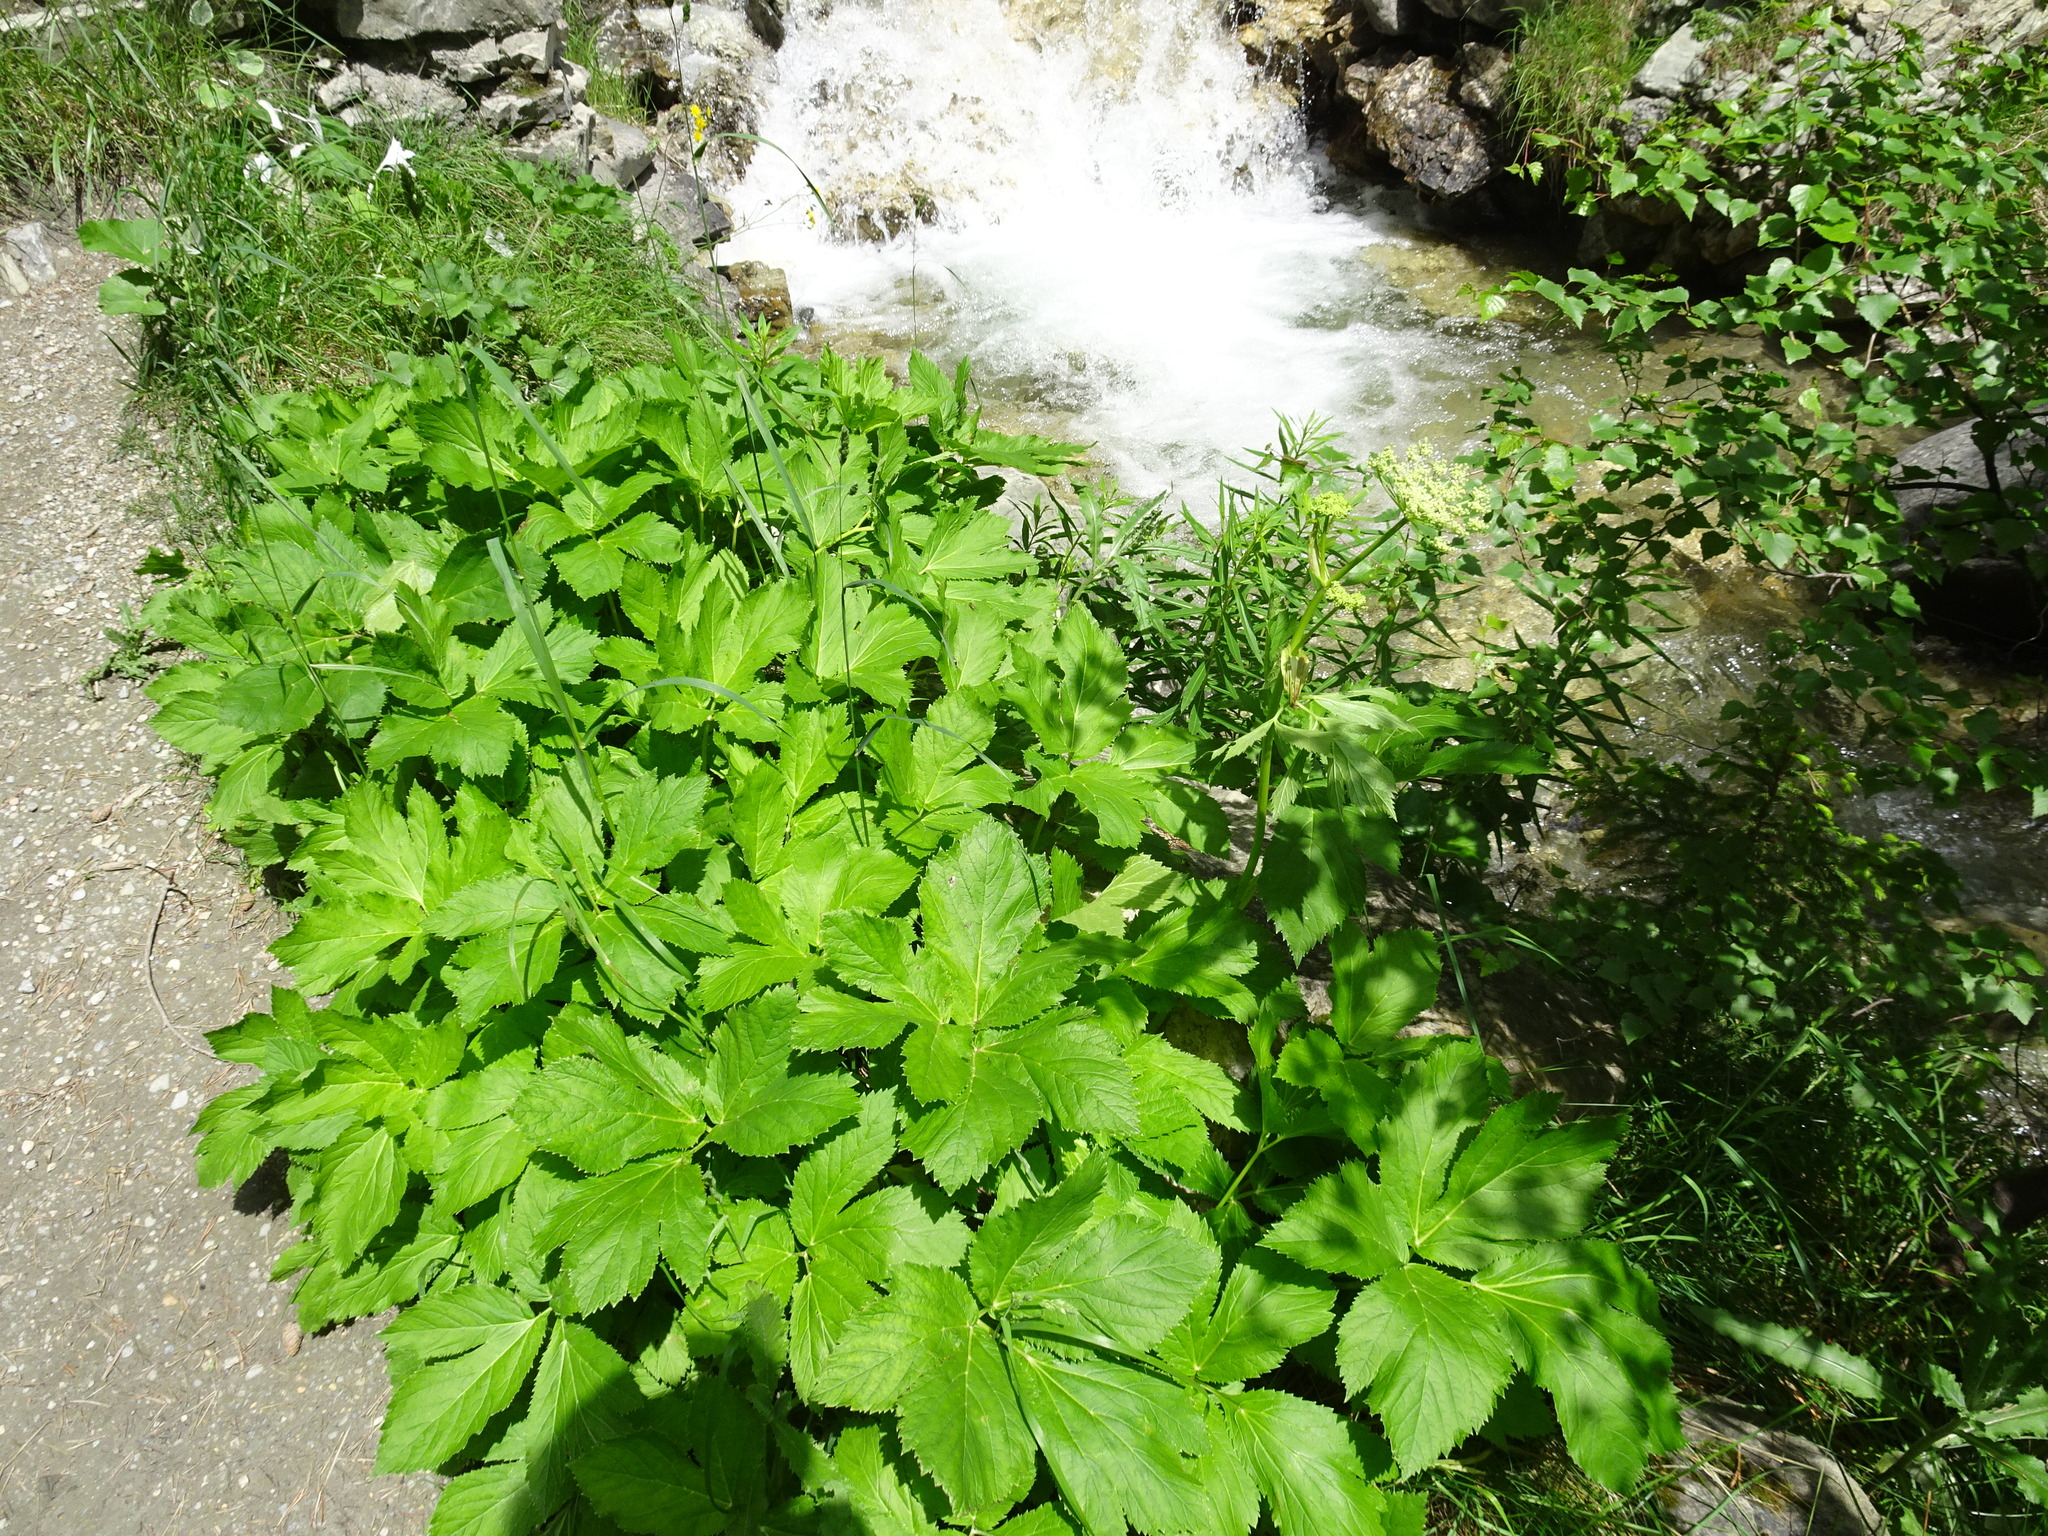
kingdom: Plantae
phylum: Tracheophyta
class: Magnoliopsida
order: Apiales
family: Apiaceae
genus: Imperatoria
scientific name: Imperatoria ostruthium
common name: Masterwort
